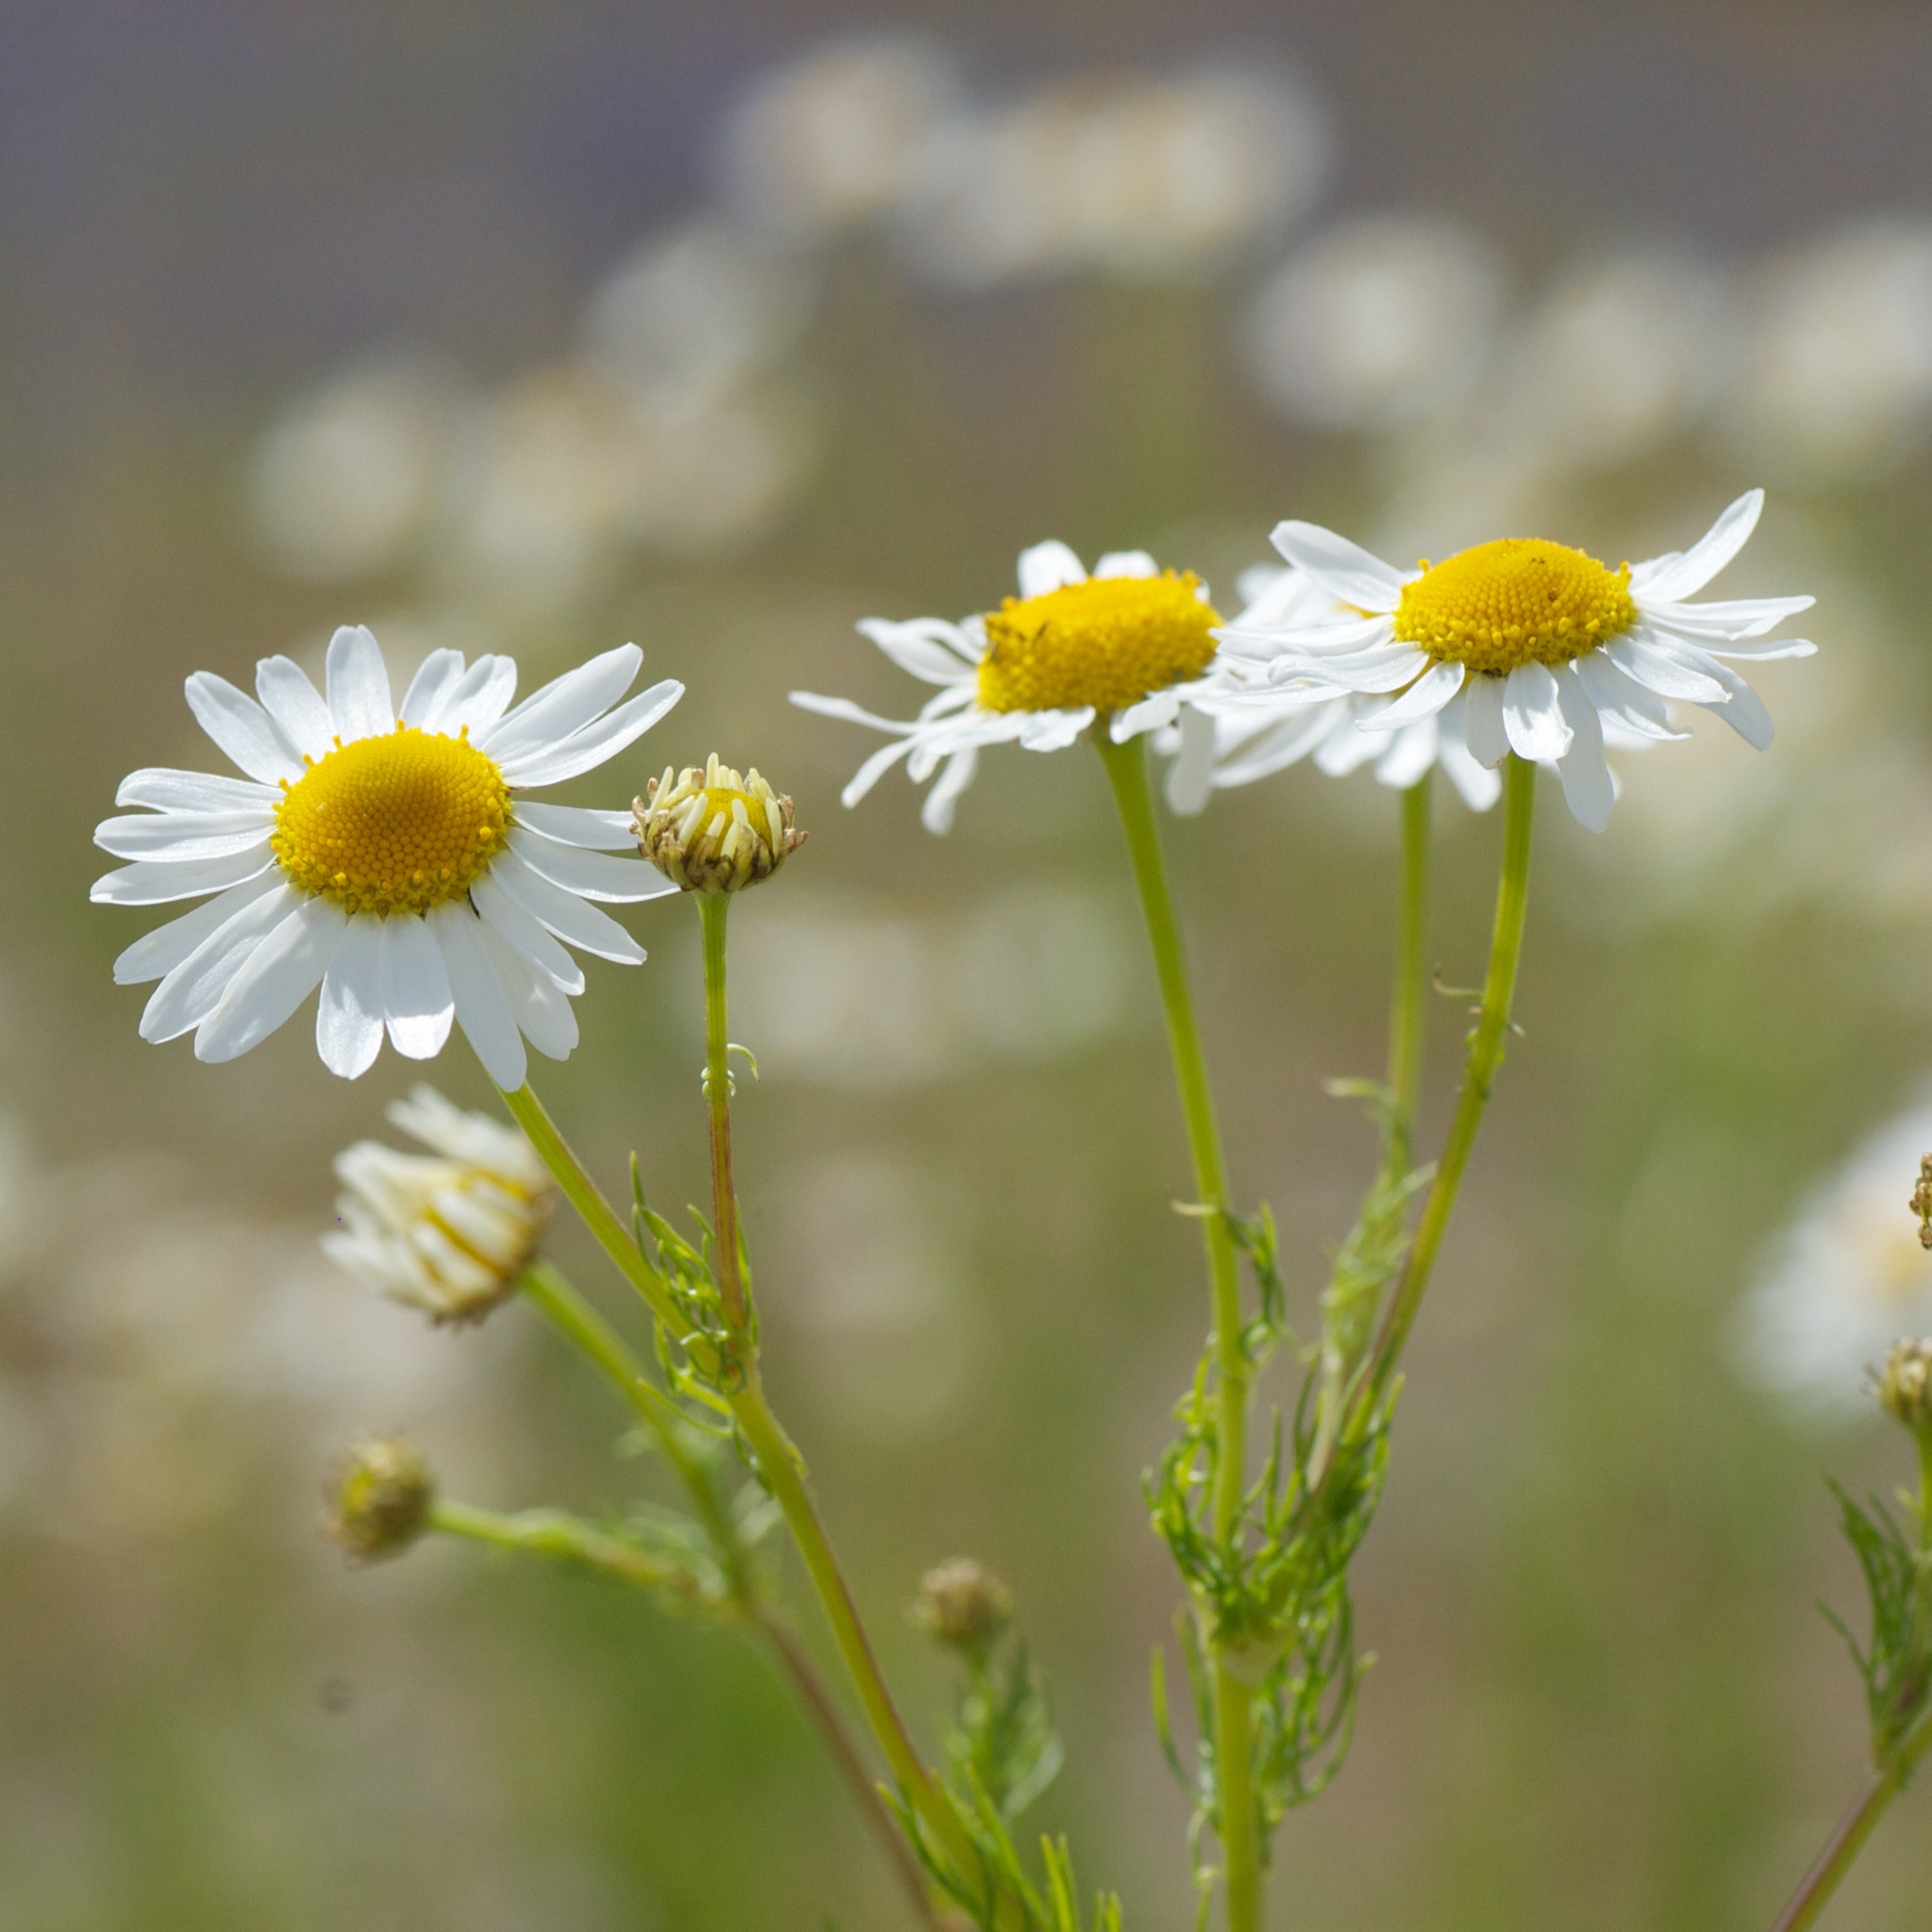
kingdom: Plantae
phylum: Tracheophyta
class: Magnoliopsida
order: Asterales
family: Asteraceae
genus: Tripleurospermum
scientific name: Tripleurospermum inodorum
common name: Scentless mayweed
